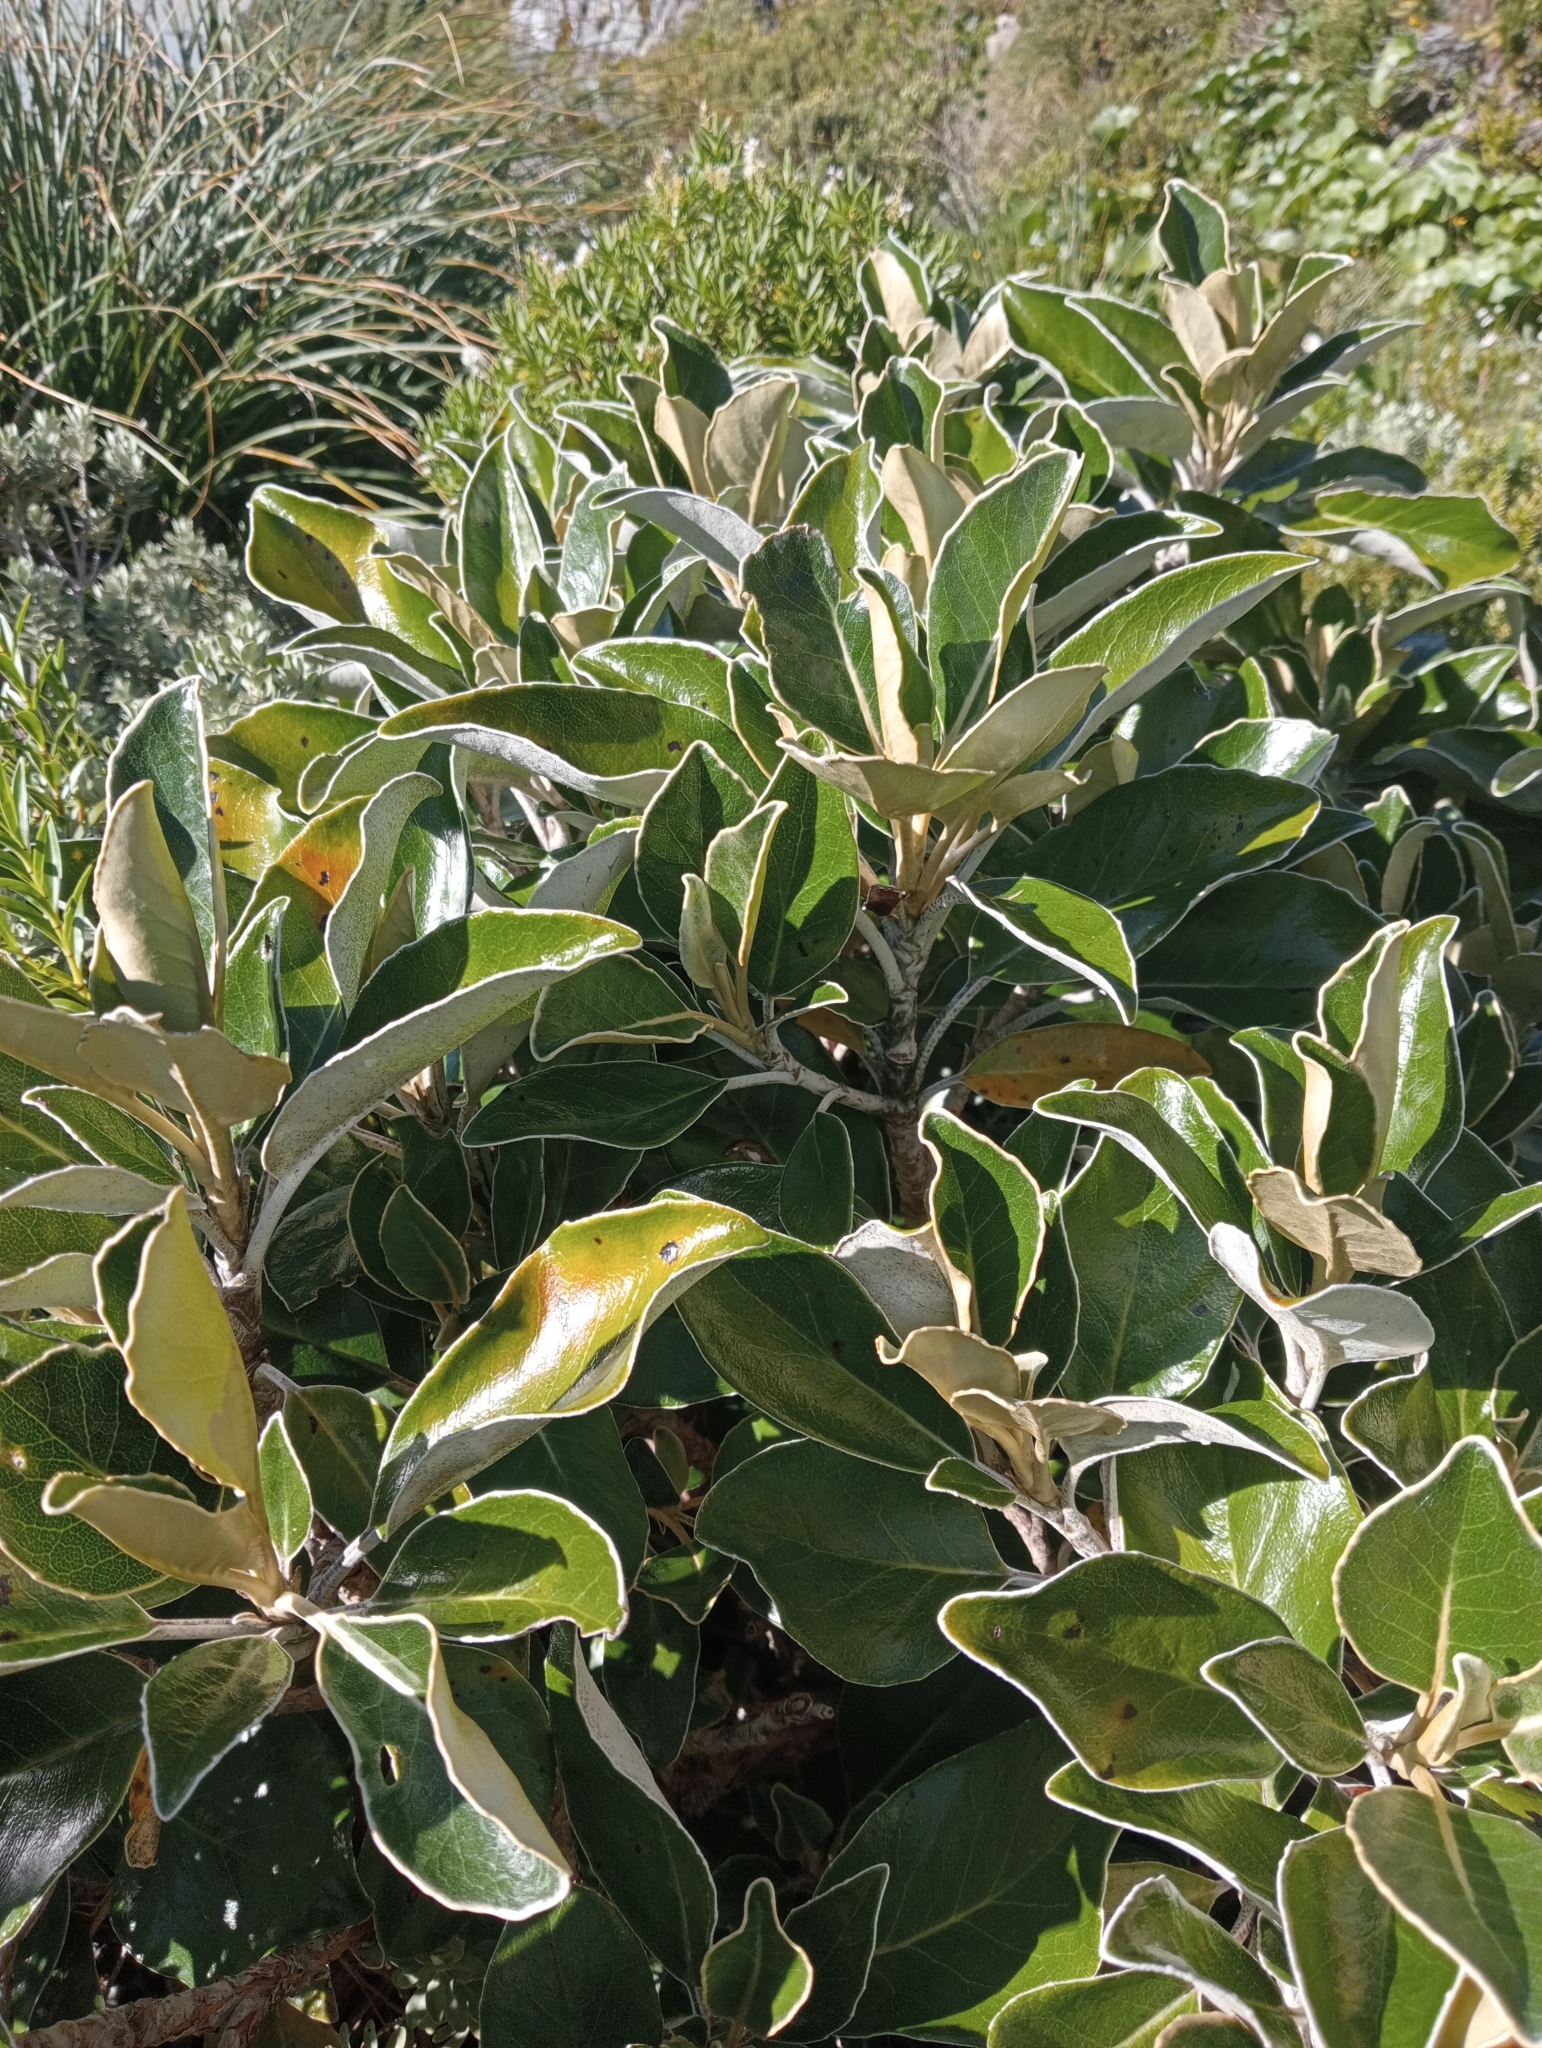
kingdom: Plantae
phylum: Tracheophyta
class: Magnoliopsida
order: Asterales
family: Asteraceae
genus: Brachyglottis
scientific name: Brachyglottis buchananii
